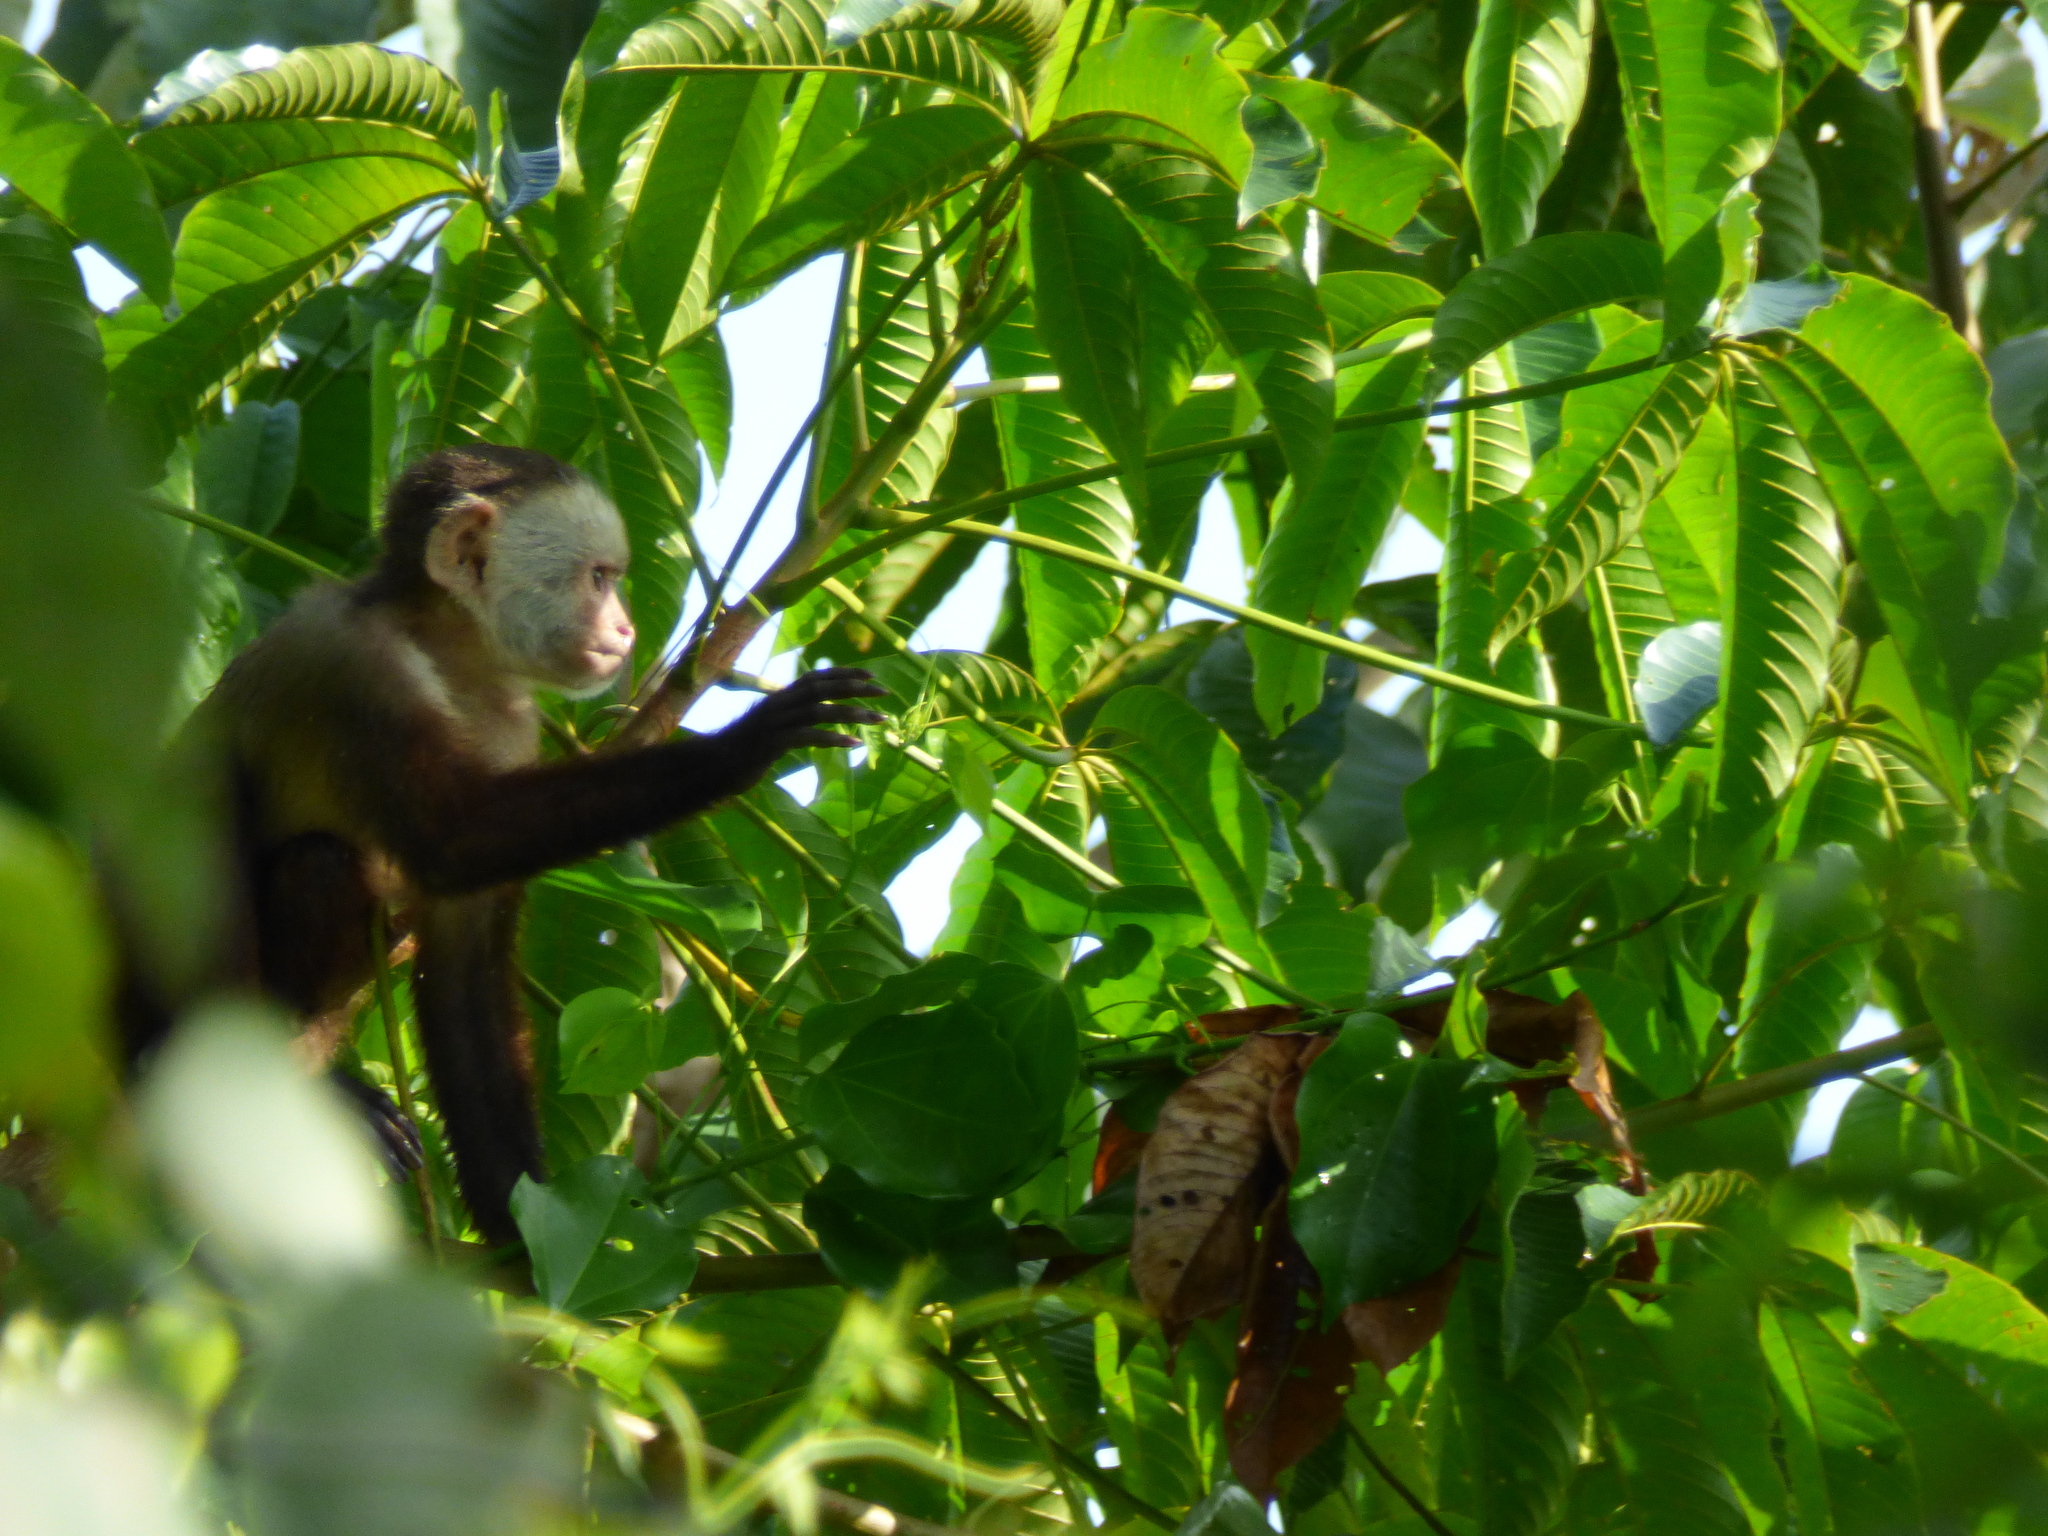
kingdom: Animalia
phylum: Chordata
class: Mammalia
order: Primates
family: Cebidae
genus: Cebus
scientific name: Cebus versicolor
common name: Varied capuchin
